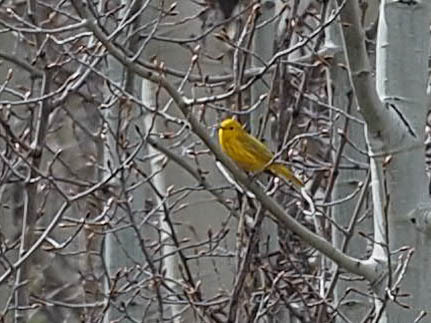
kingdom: Animalia
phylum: Chordata
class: Aves
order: Passeriformes
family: Parulidae
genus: Setophaga
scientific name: Setophaga petechia
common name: Yellow warbler
